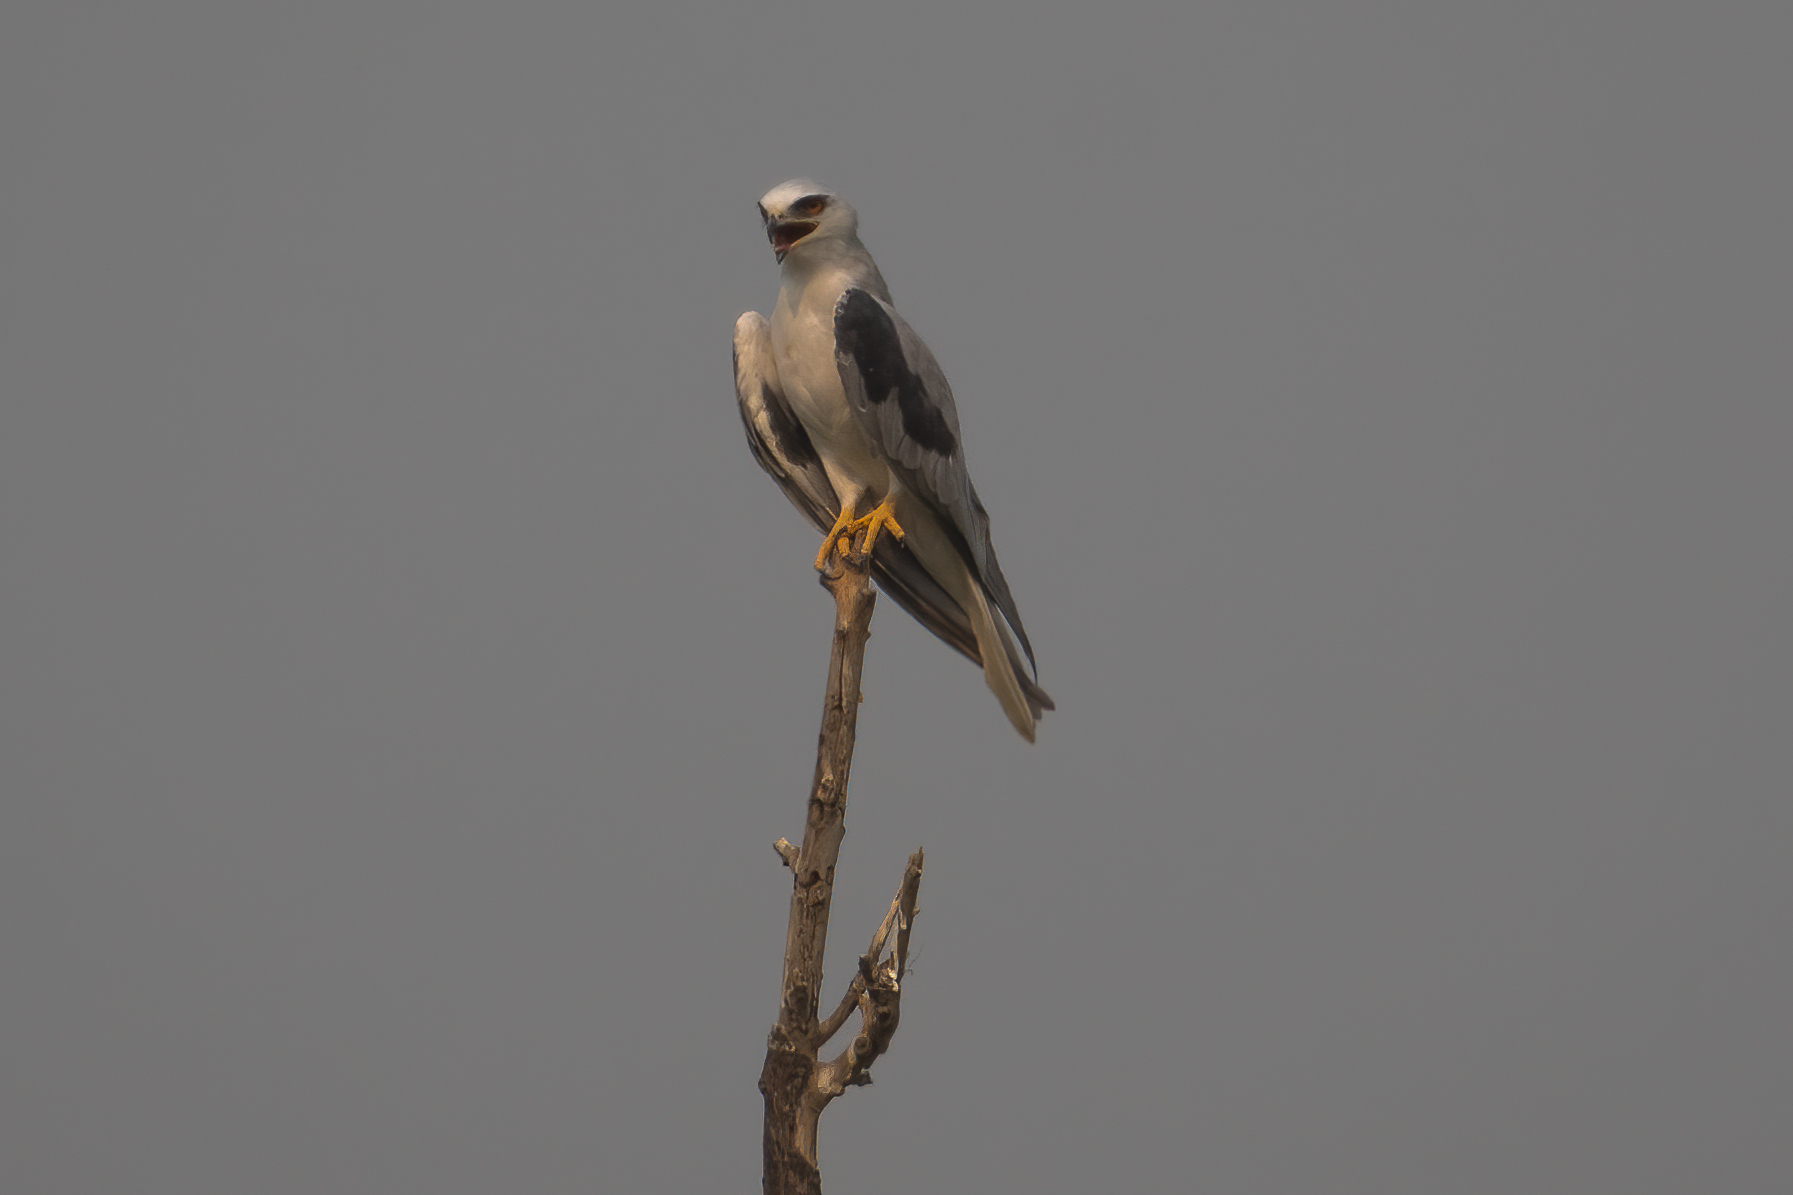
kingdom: Animalia
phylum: Chordata
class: Aves
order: Accipitriformes
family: Accipitridae
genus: Elanus
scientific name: Elanus leucurus
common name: White-tailed kite
